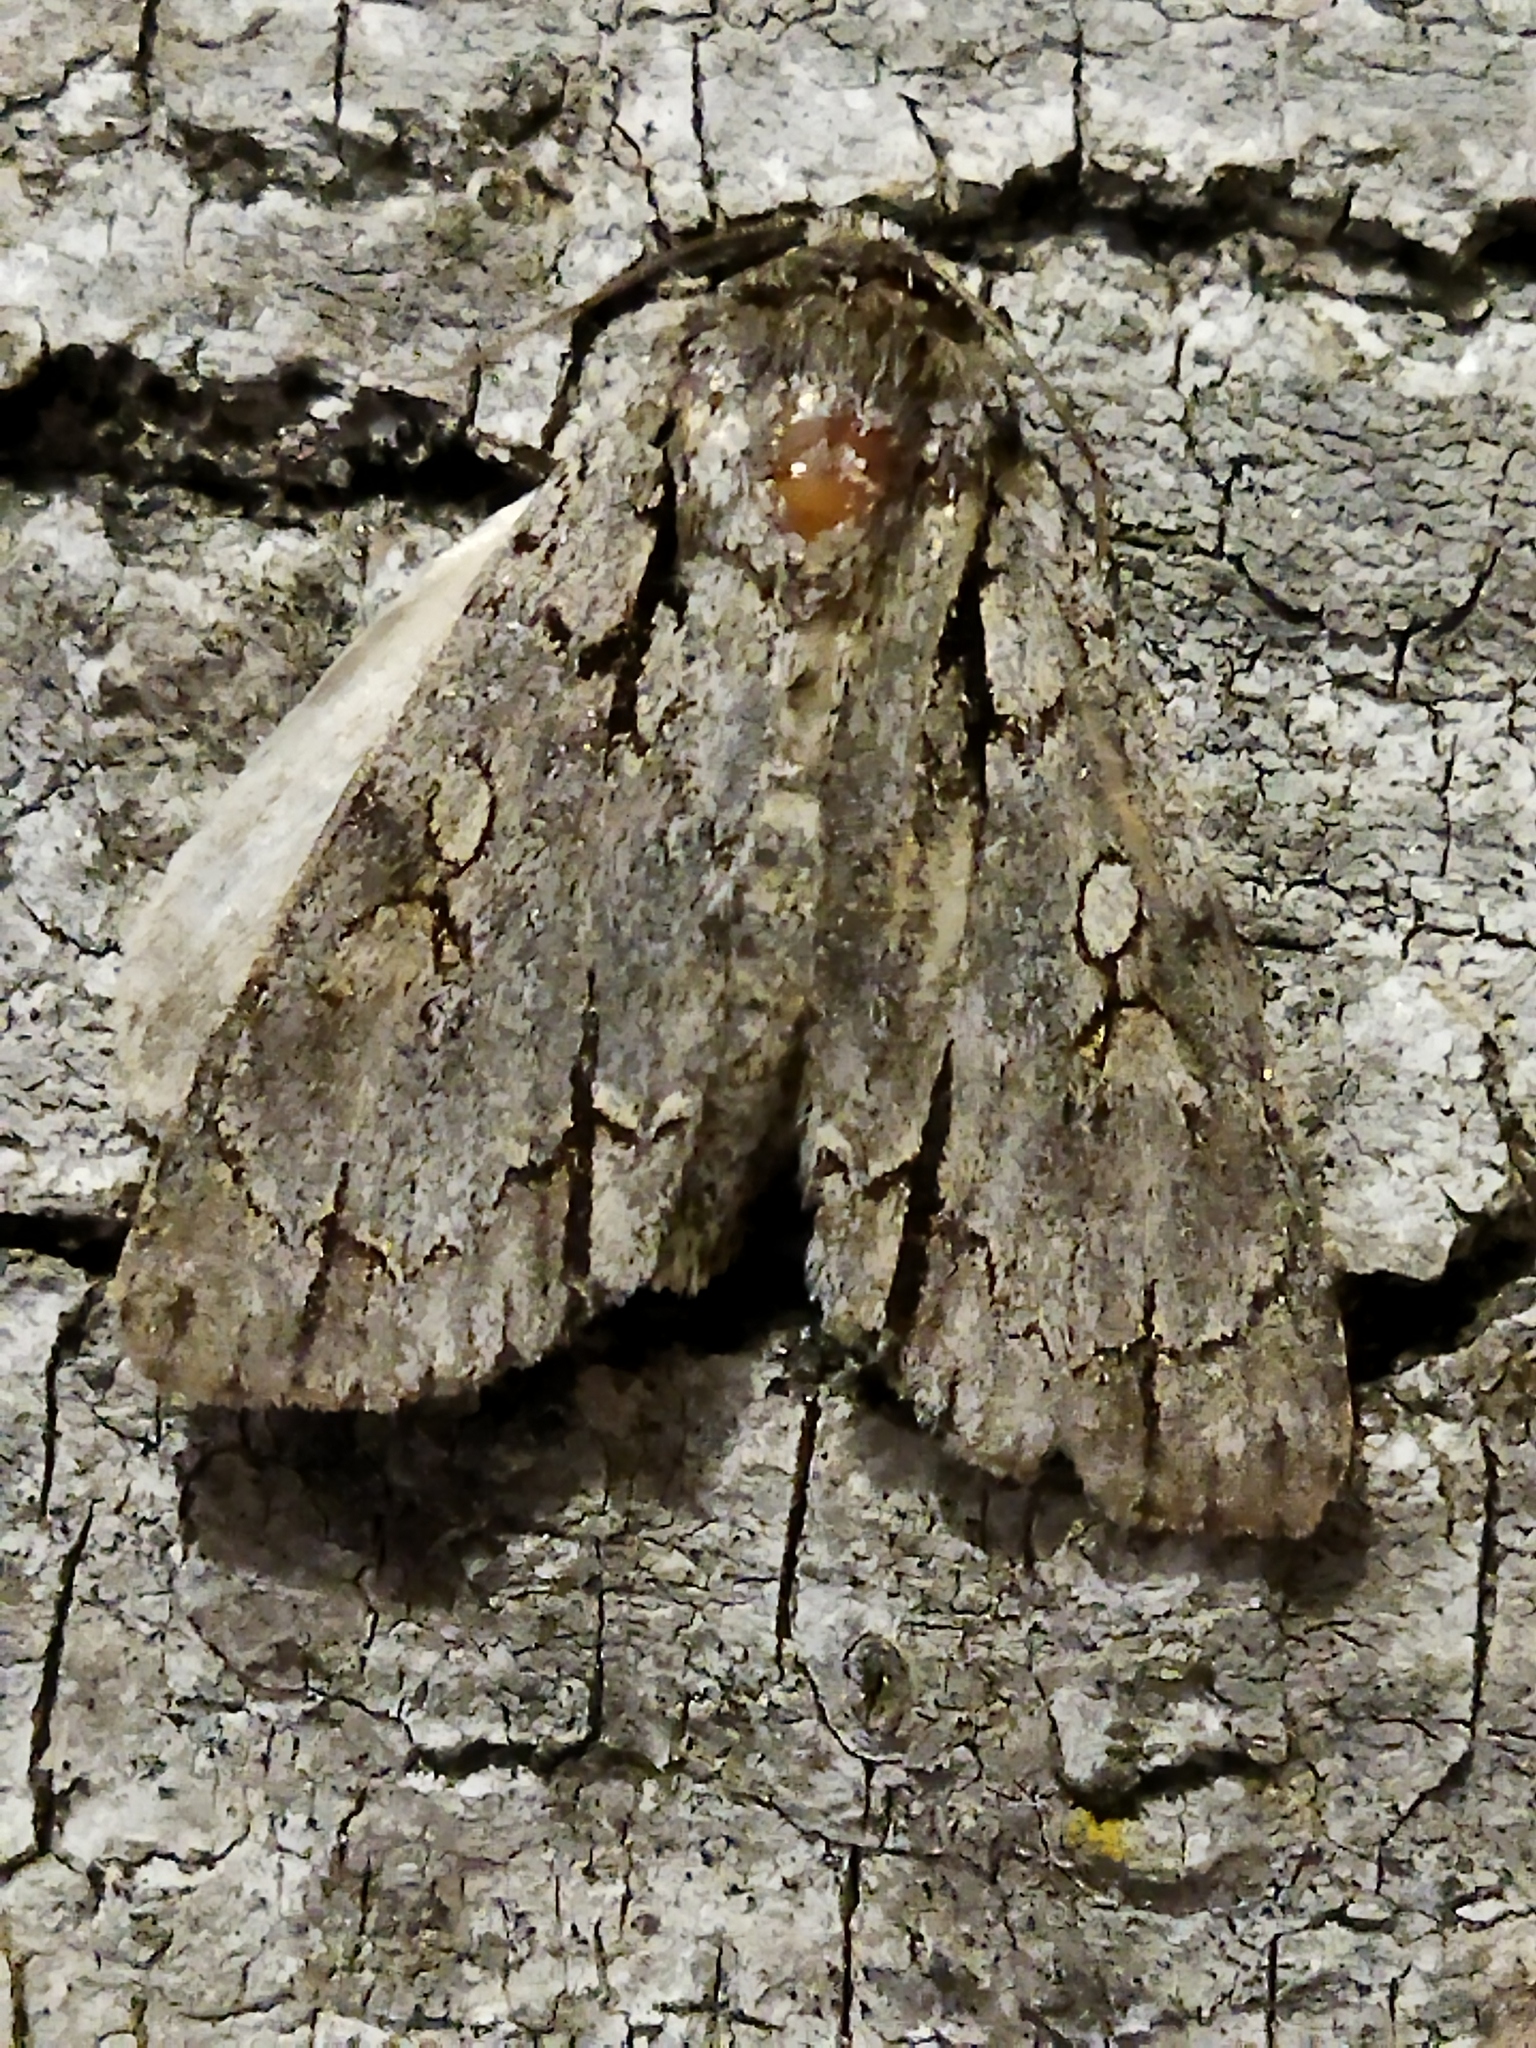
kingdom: Animalia
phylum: Arthropoda
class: Insecta
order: Lepidoptera
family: Noctuidae
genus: Acronicta
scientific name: Acronicta
